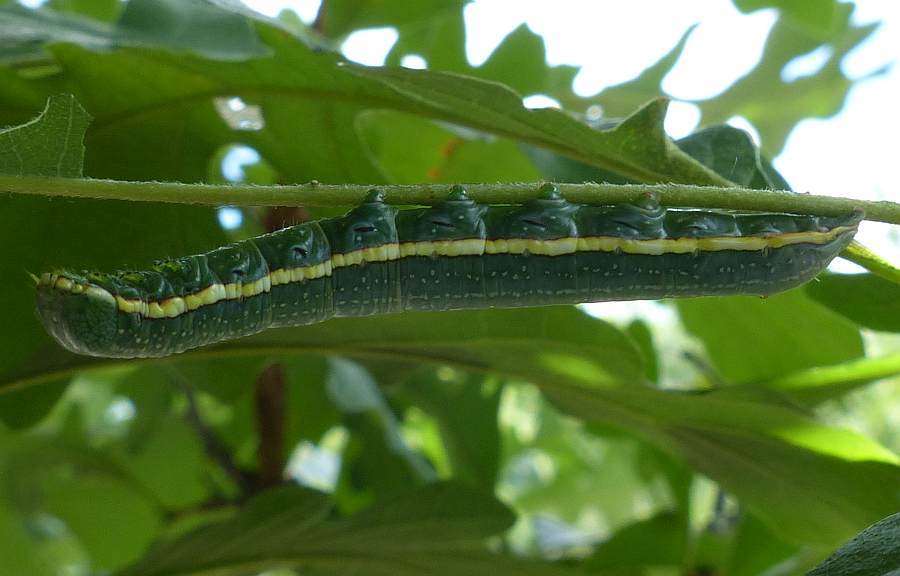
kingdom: Animalia
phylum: Arthropoda
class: Insecta
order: Lepidoptera
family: Notodontidae
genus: Paraeschra
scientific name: Paraeschra georgica
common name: Georgian prominent
